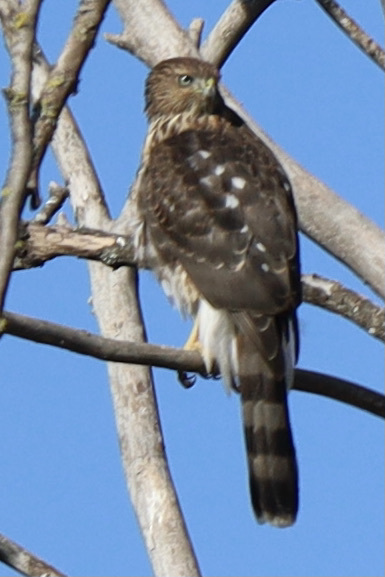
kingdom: Animalia
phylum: Chordata
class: Aves
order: Accipitriformes
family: Accipitridae
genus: Accipiter
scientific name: Accipiter cooperii
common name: Cooper's hawk
